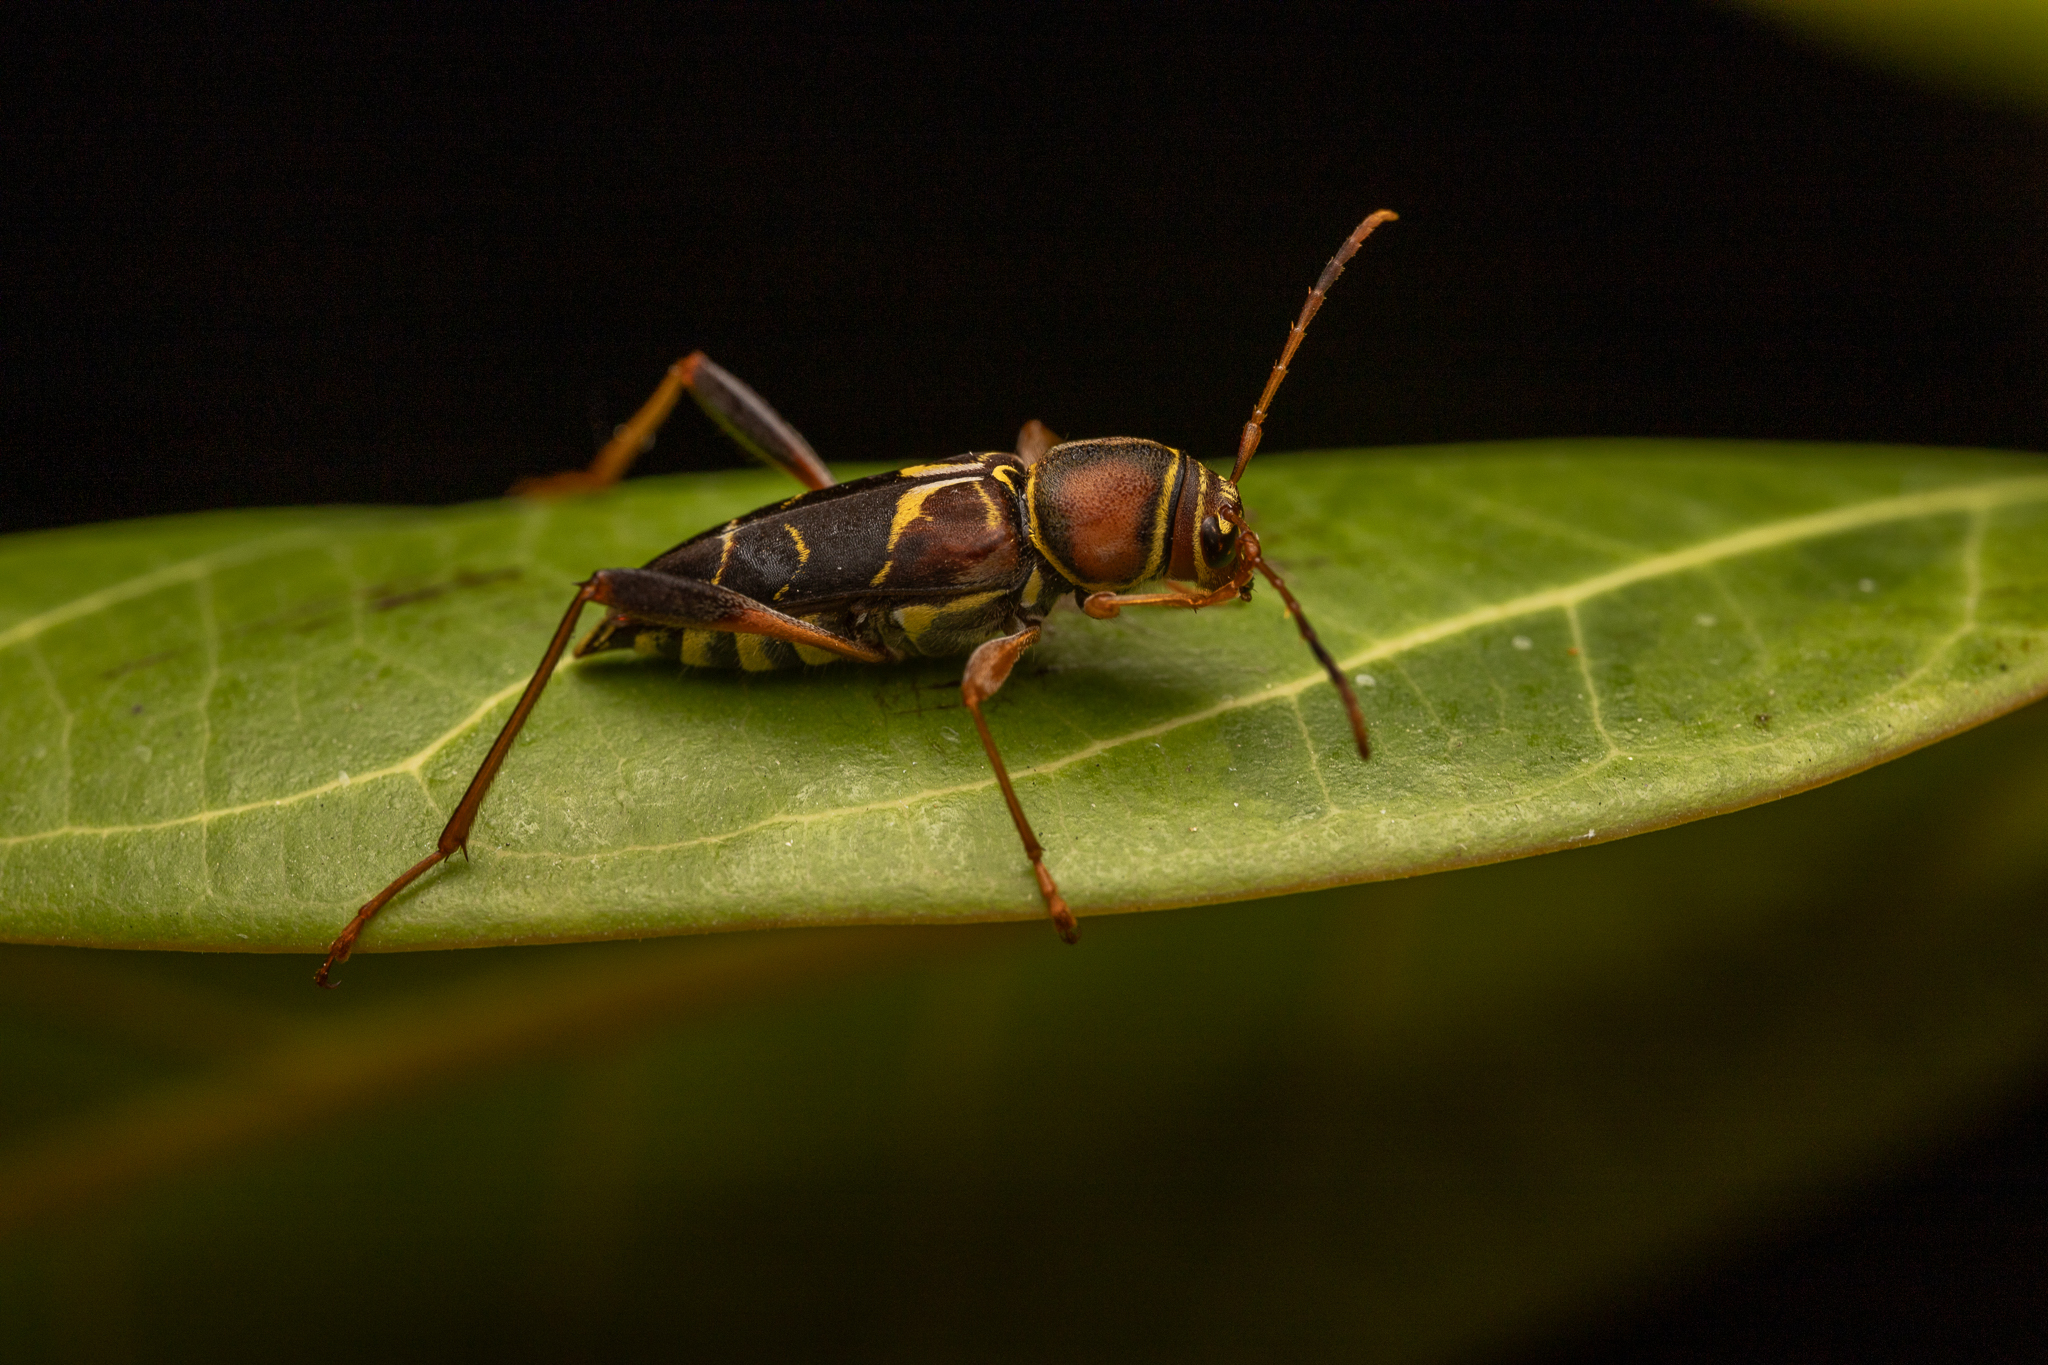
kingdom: Animalia
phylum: Arthropoda
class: Insecta
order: Coleoptera
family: Cerambycidae
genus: Neoclytus
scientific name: Neoclytus mucronatus
